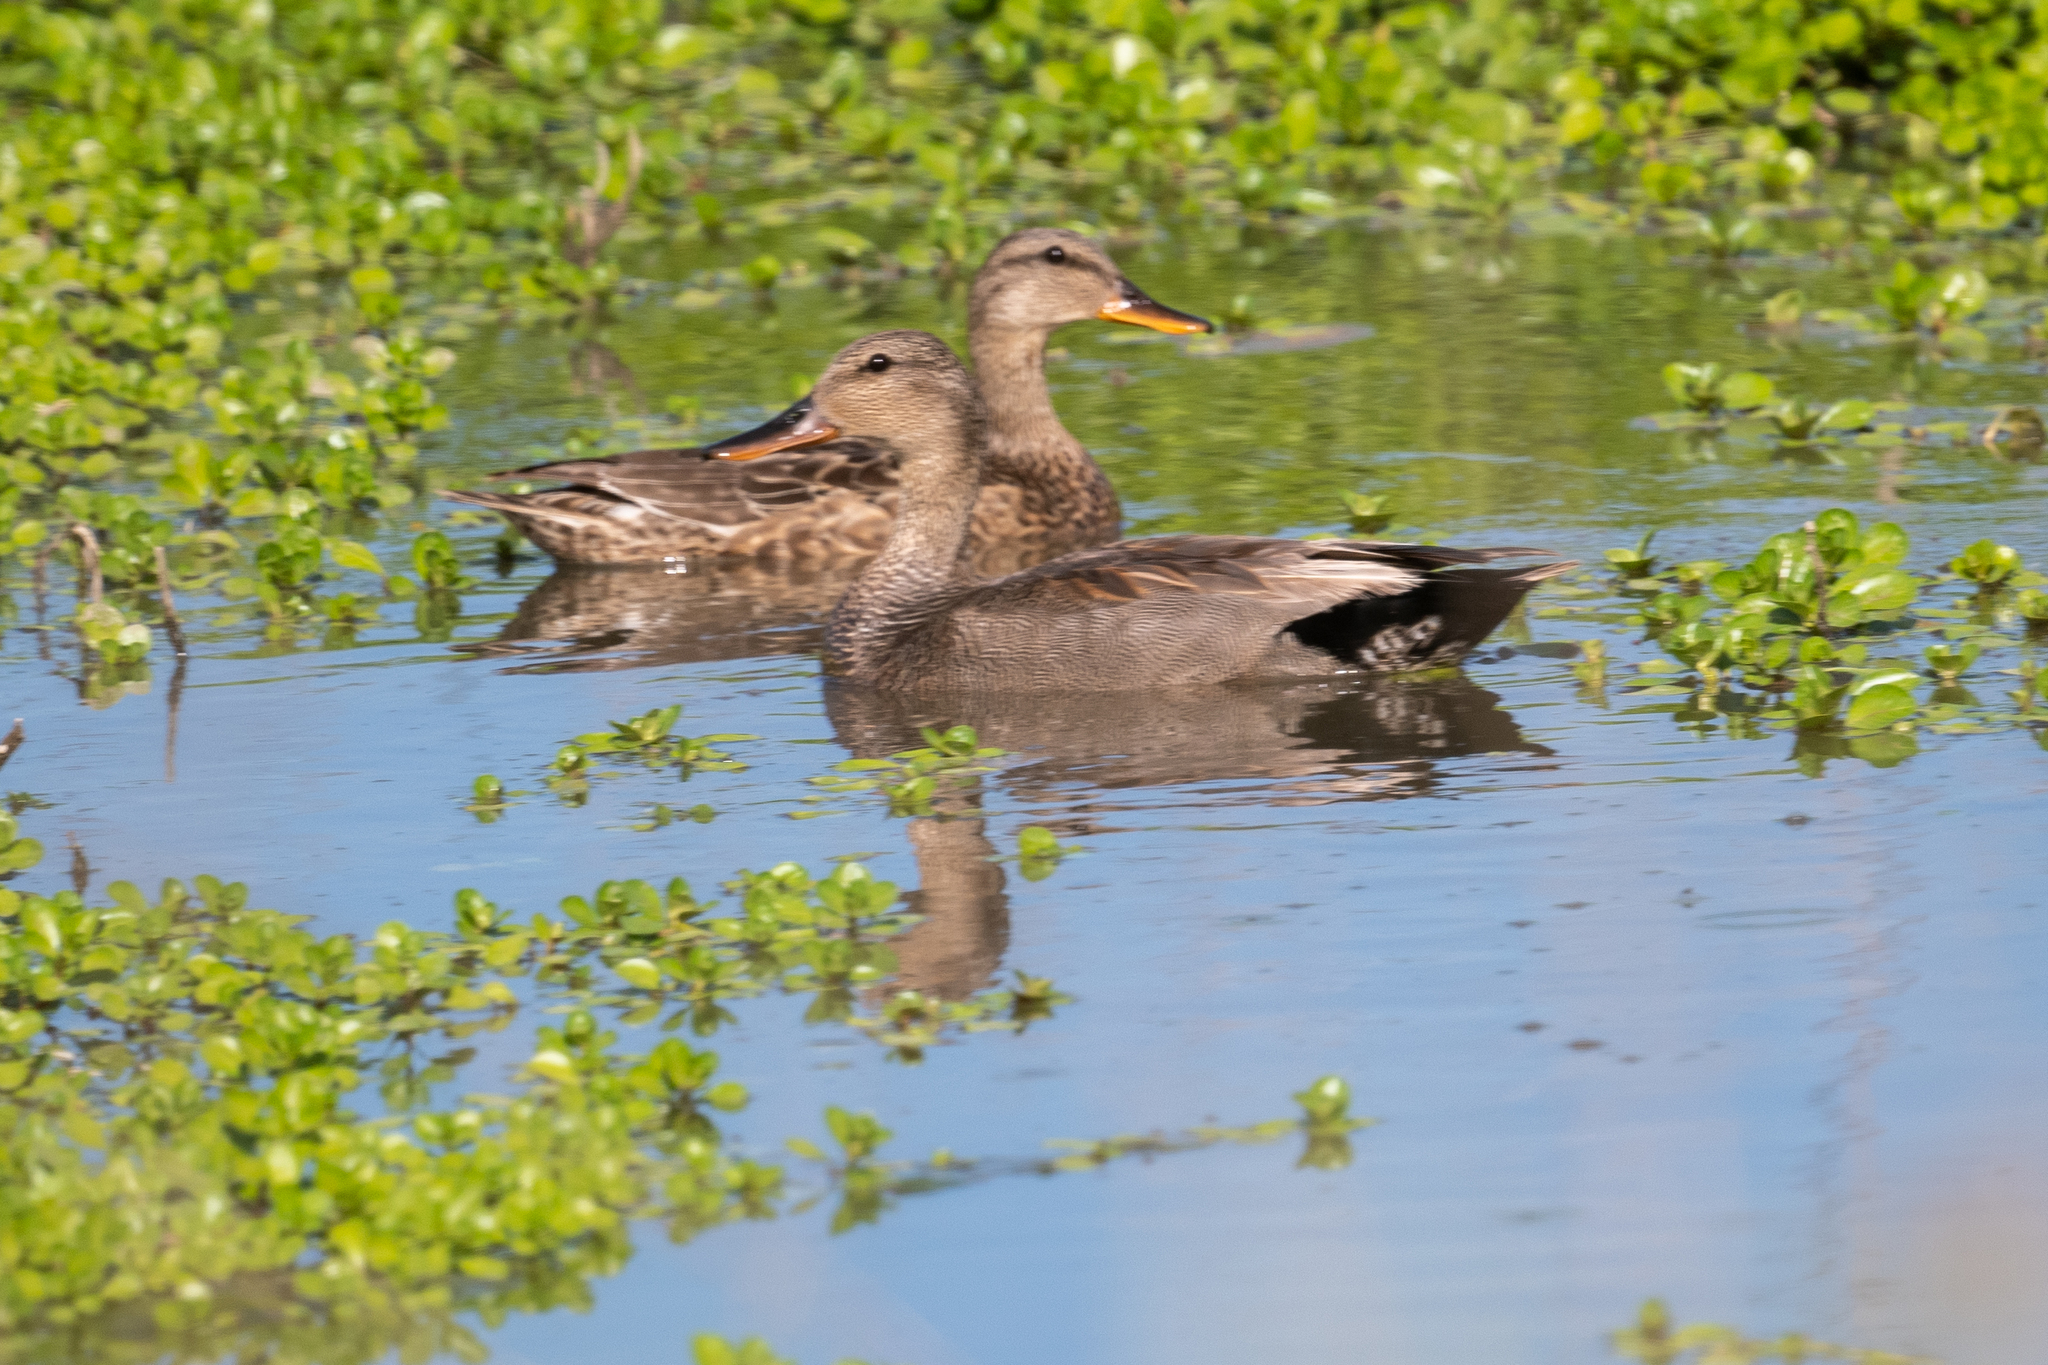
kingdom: Animalia
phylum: Chordata
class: Aves
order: Anseriformes
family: Anatidae
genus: Mareca
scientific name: Mareca strepera
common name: Gadwall
